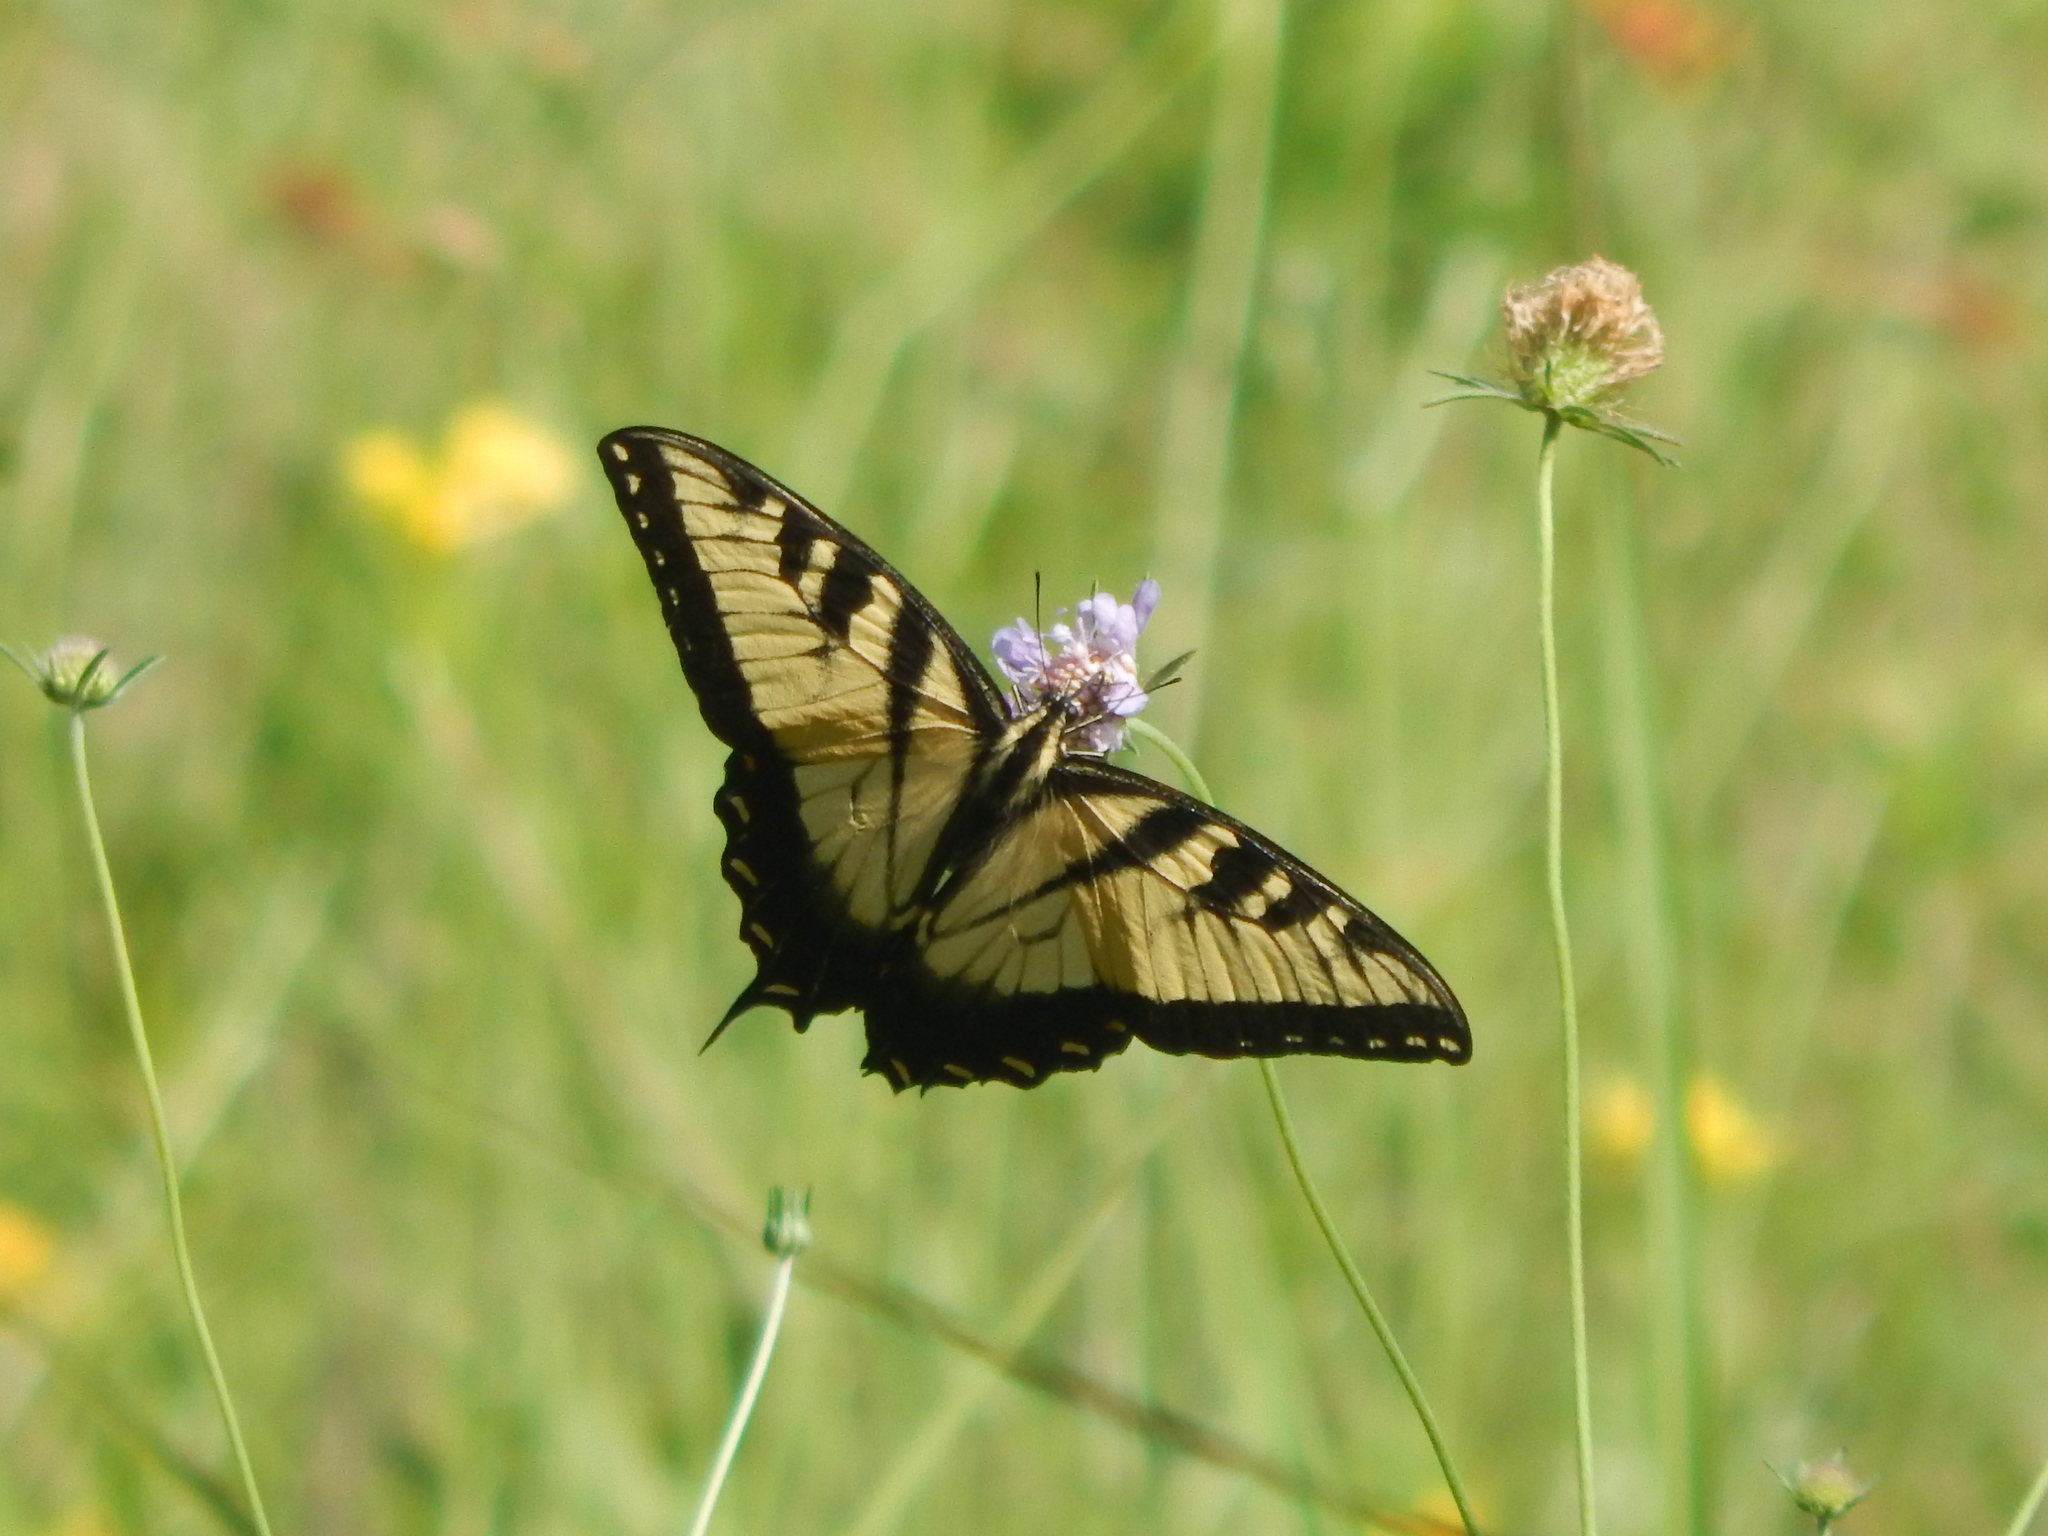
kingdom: Animalia
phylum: Arthropoda
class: Insecta
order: Lepidoptera
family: Papilionidae
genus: Papilio
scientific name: Papilio glaucus
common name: Tiger swallowtail
